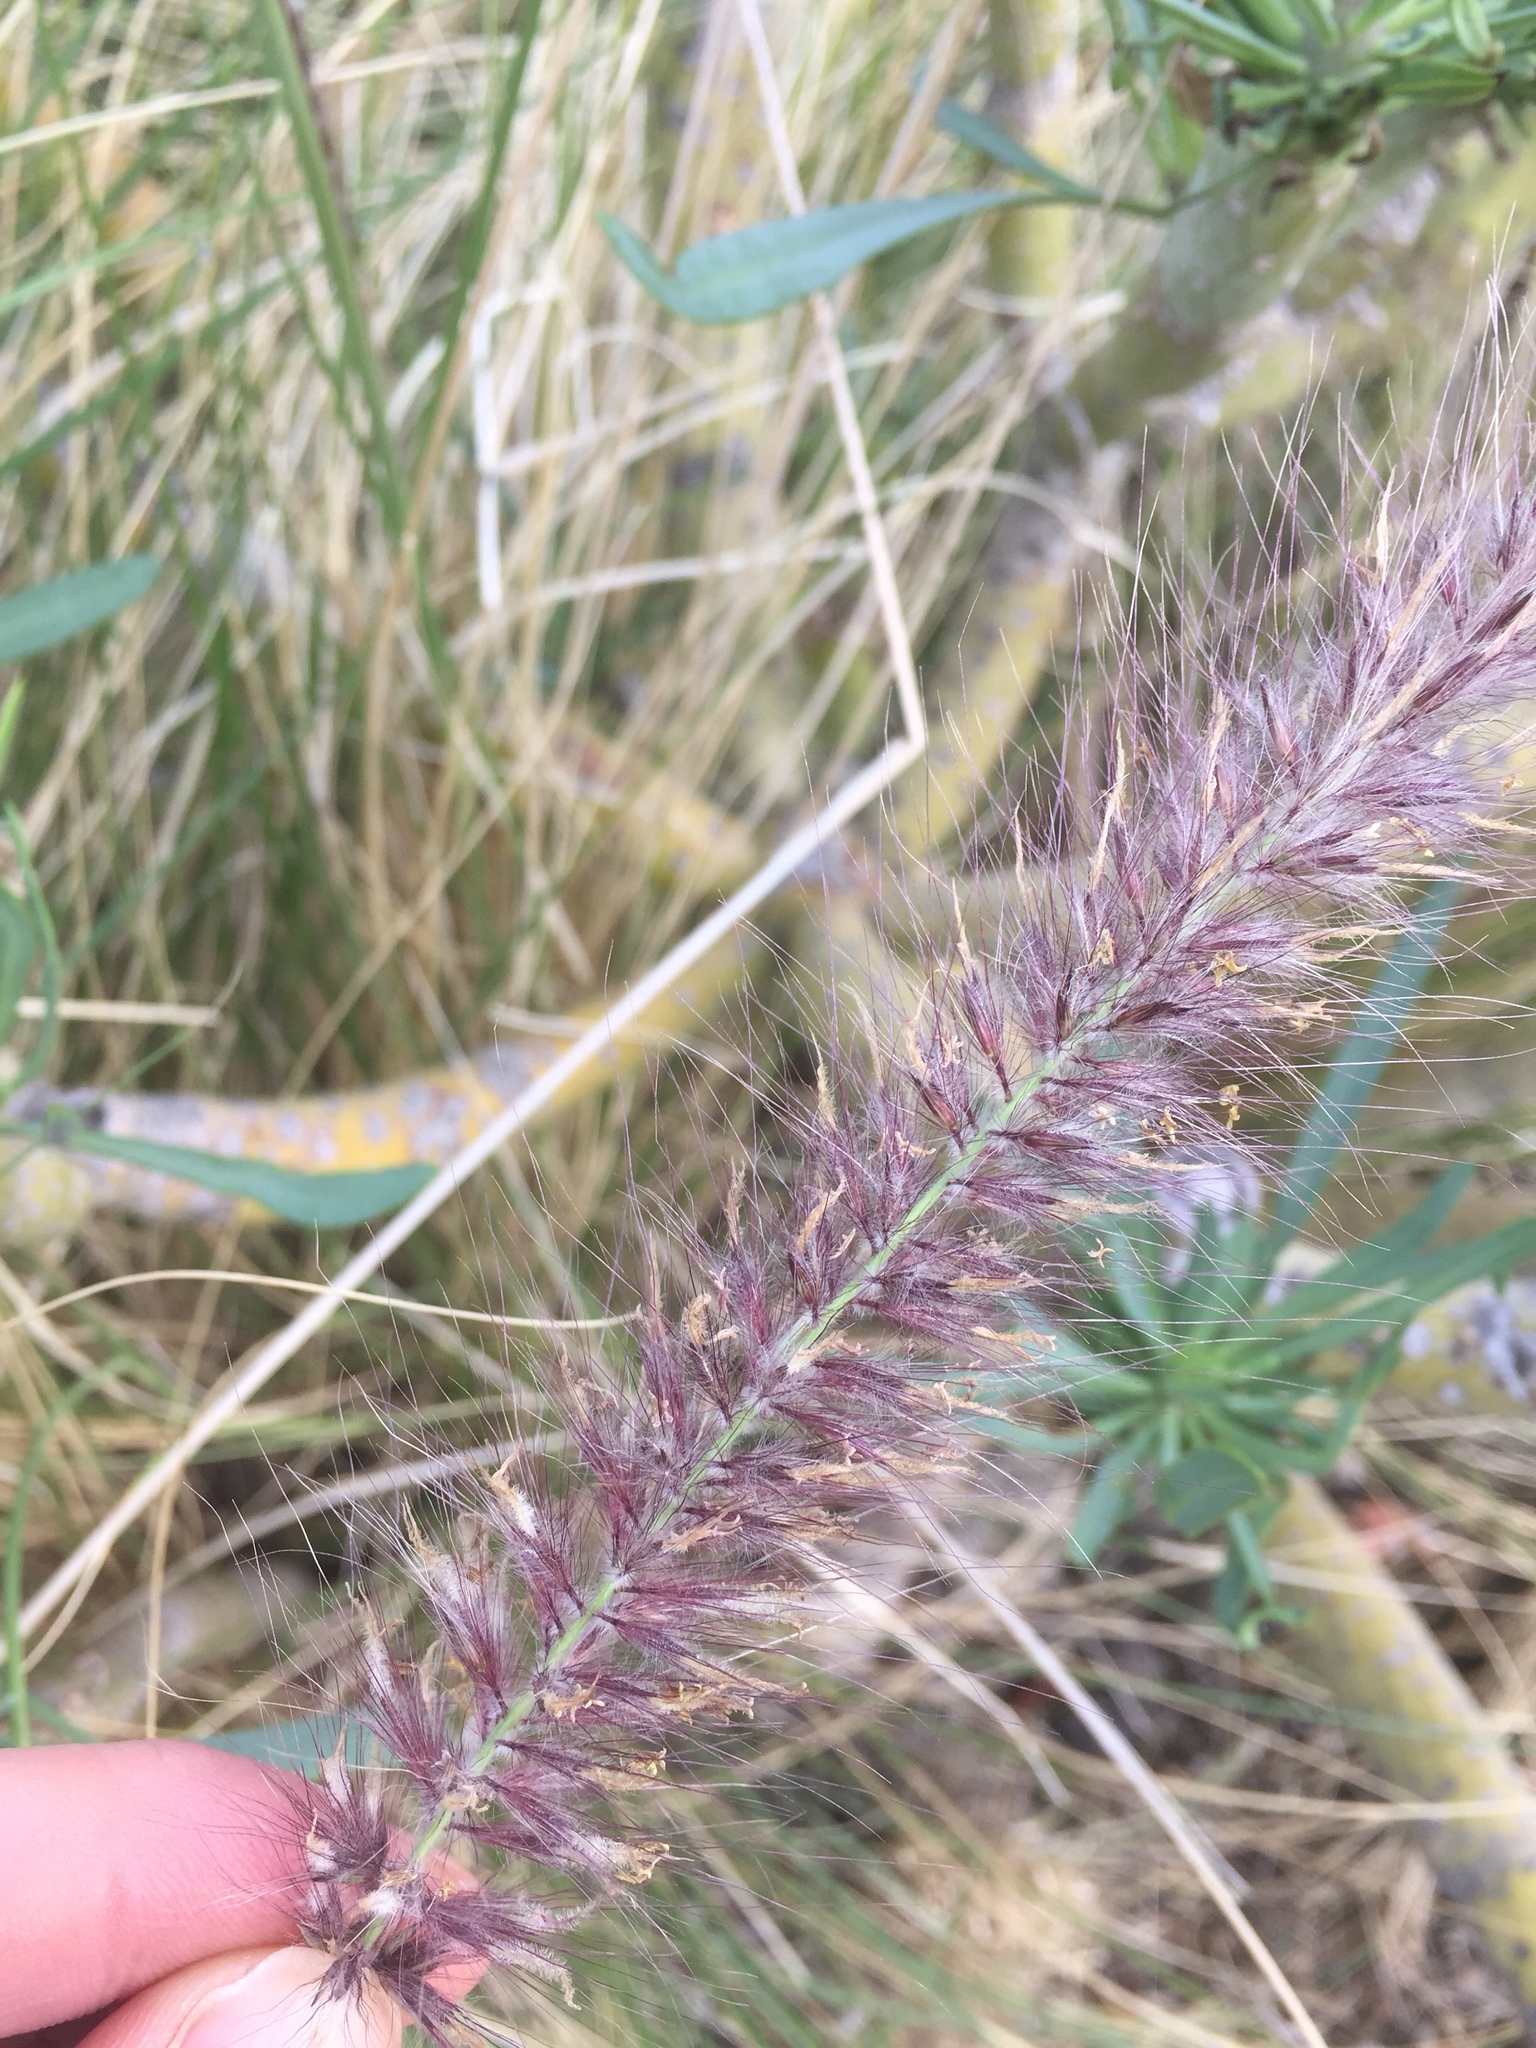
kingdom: Plantae
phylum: Tracheophyta
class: Liliopsida
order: Poales
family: Poaceae
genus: Cenchrus
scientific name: Cenchrus setaceus
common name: Crimson fountaingrass
